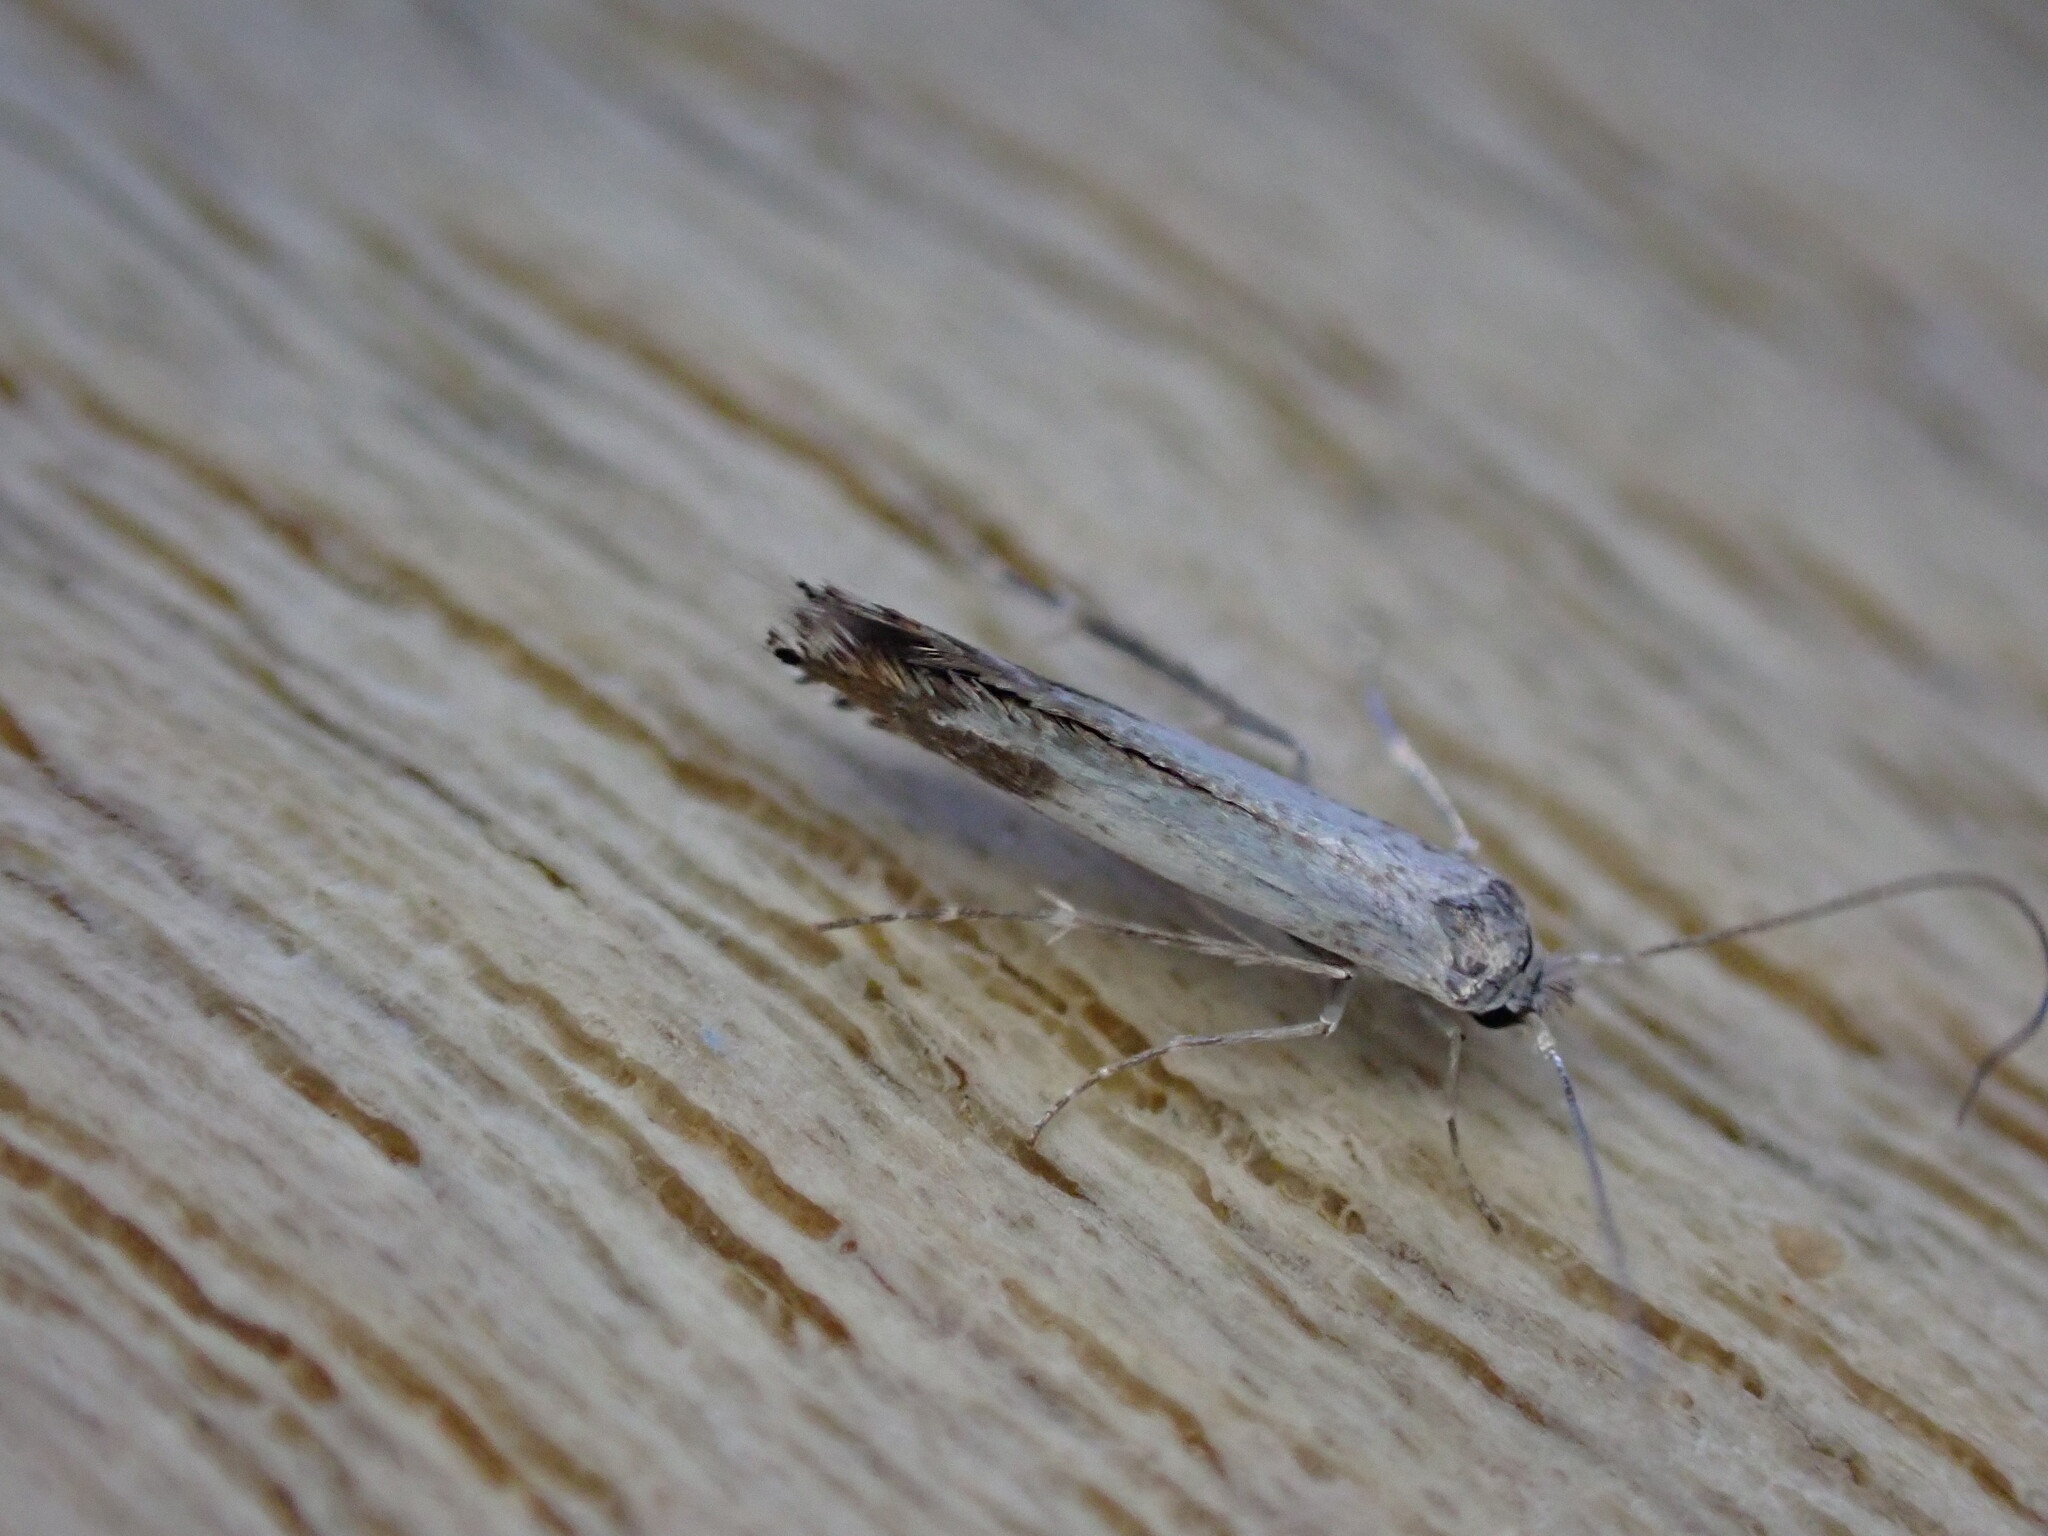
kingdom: Animalia
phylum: Arthropoda
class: Insecta
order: Lepidoptera
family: Lyonetiidae
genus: Lyonetia
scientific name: Lyonetia clerkella
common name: Apple leaf miner
